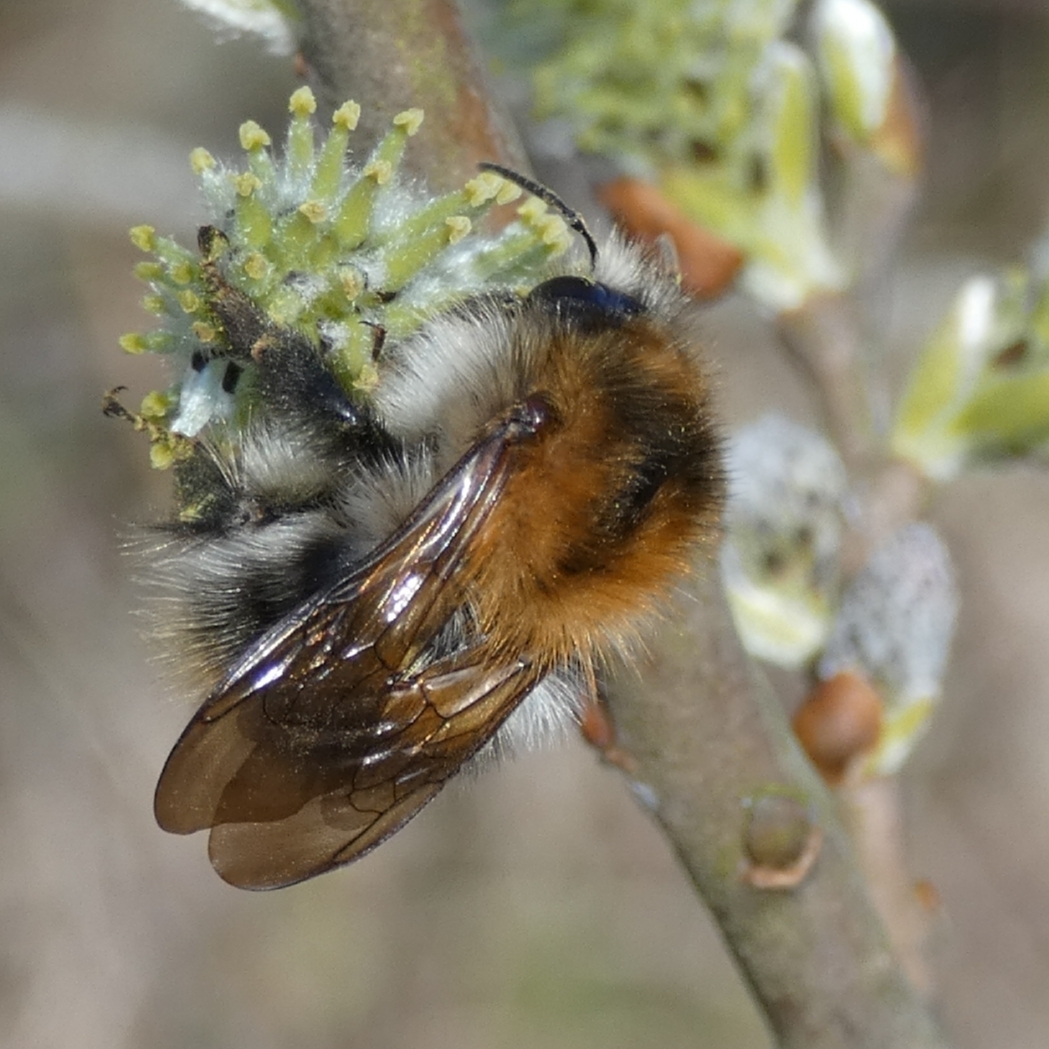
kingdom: Animalia
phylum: Arthropoda
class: Insecta
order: Hymenoptera
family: Apidae
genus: Bombus
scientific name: Bombus pascuorum
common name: Common carder bee
